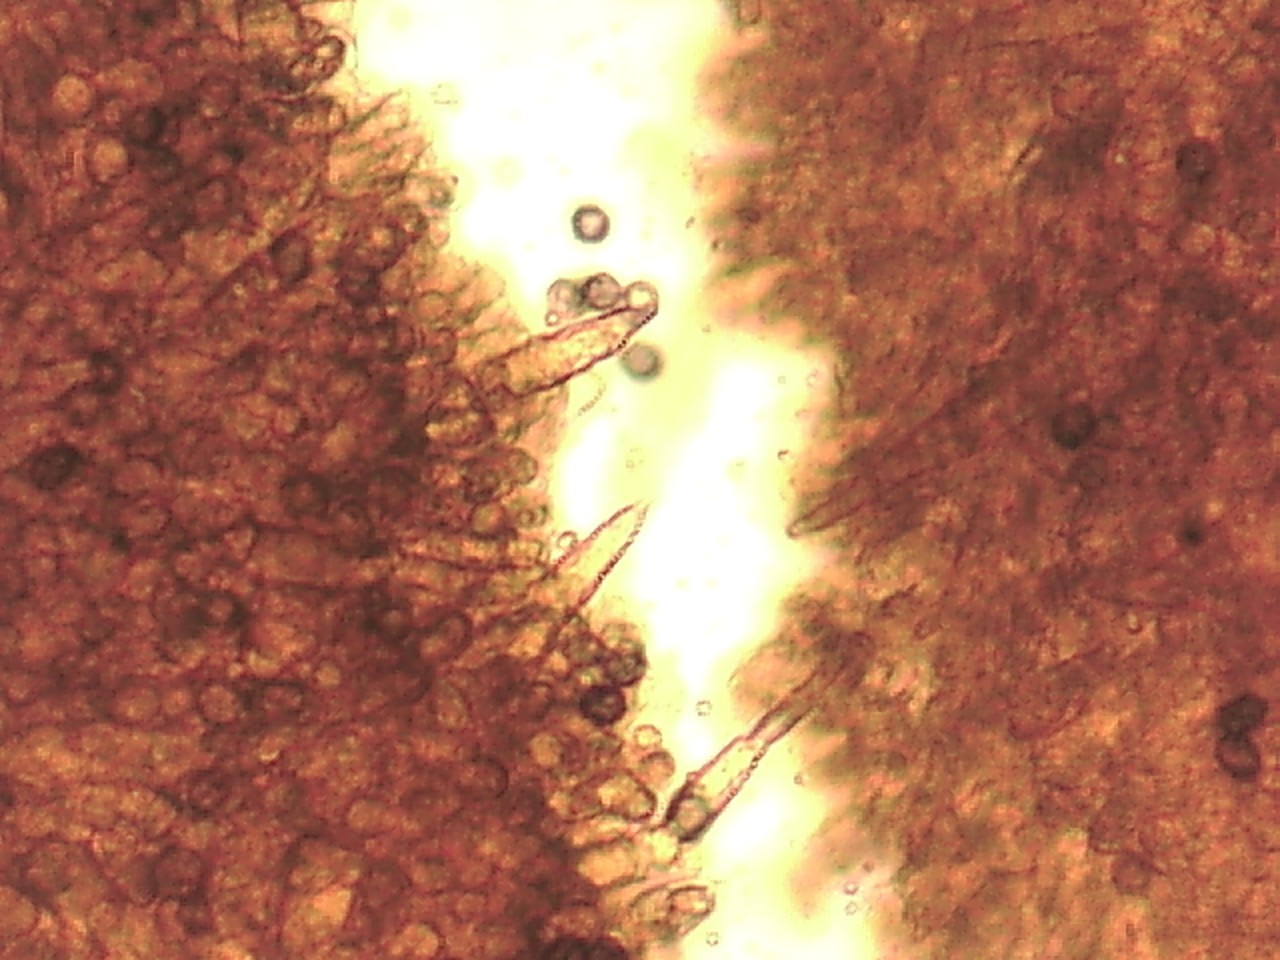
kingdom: Fungi
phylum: Basidiomycota
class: Agaricomycetes
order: Russulales
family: Russulaceae
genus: Lactarius
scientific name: Lactarius repraesentaneus
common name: Yellow bearded milkcap
